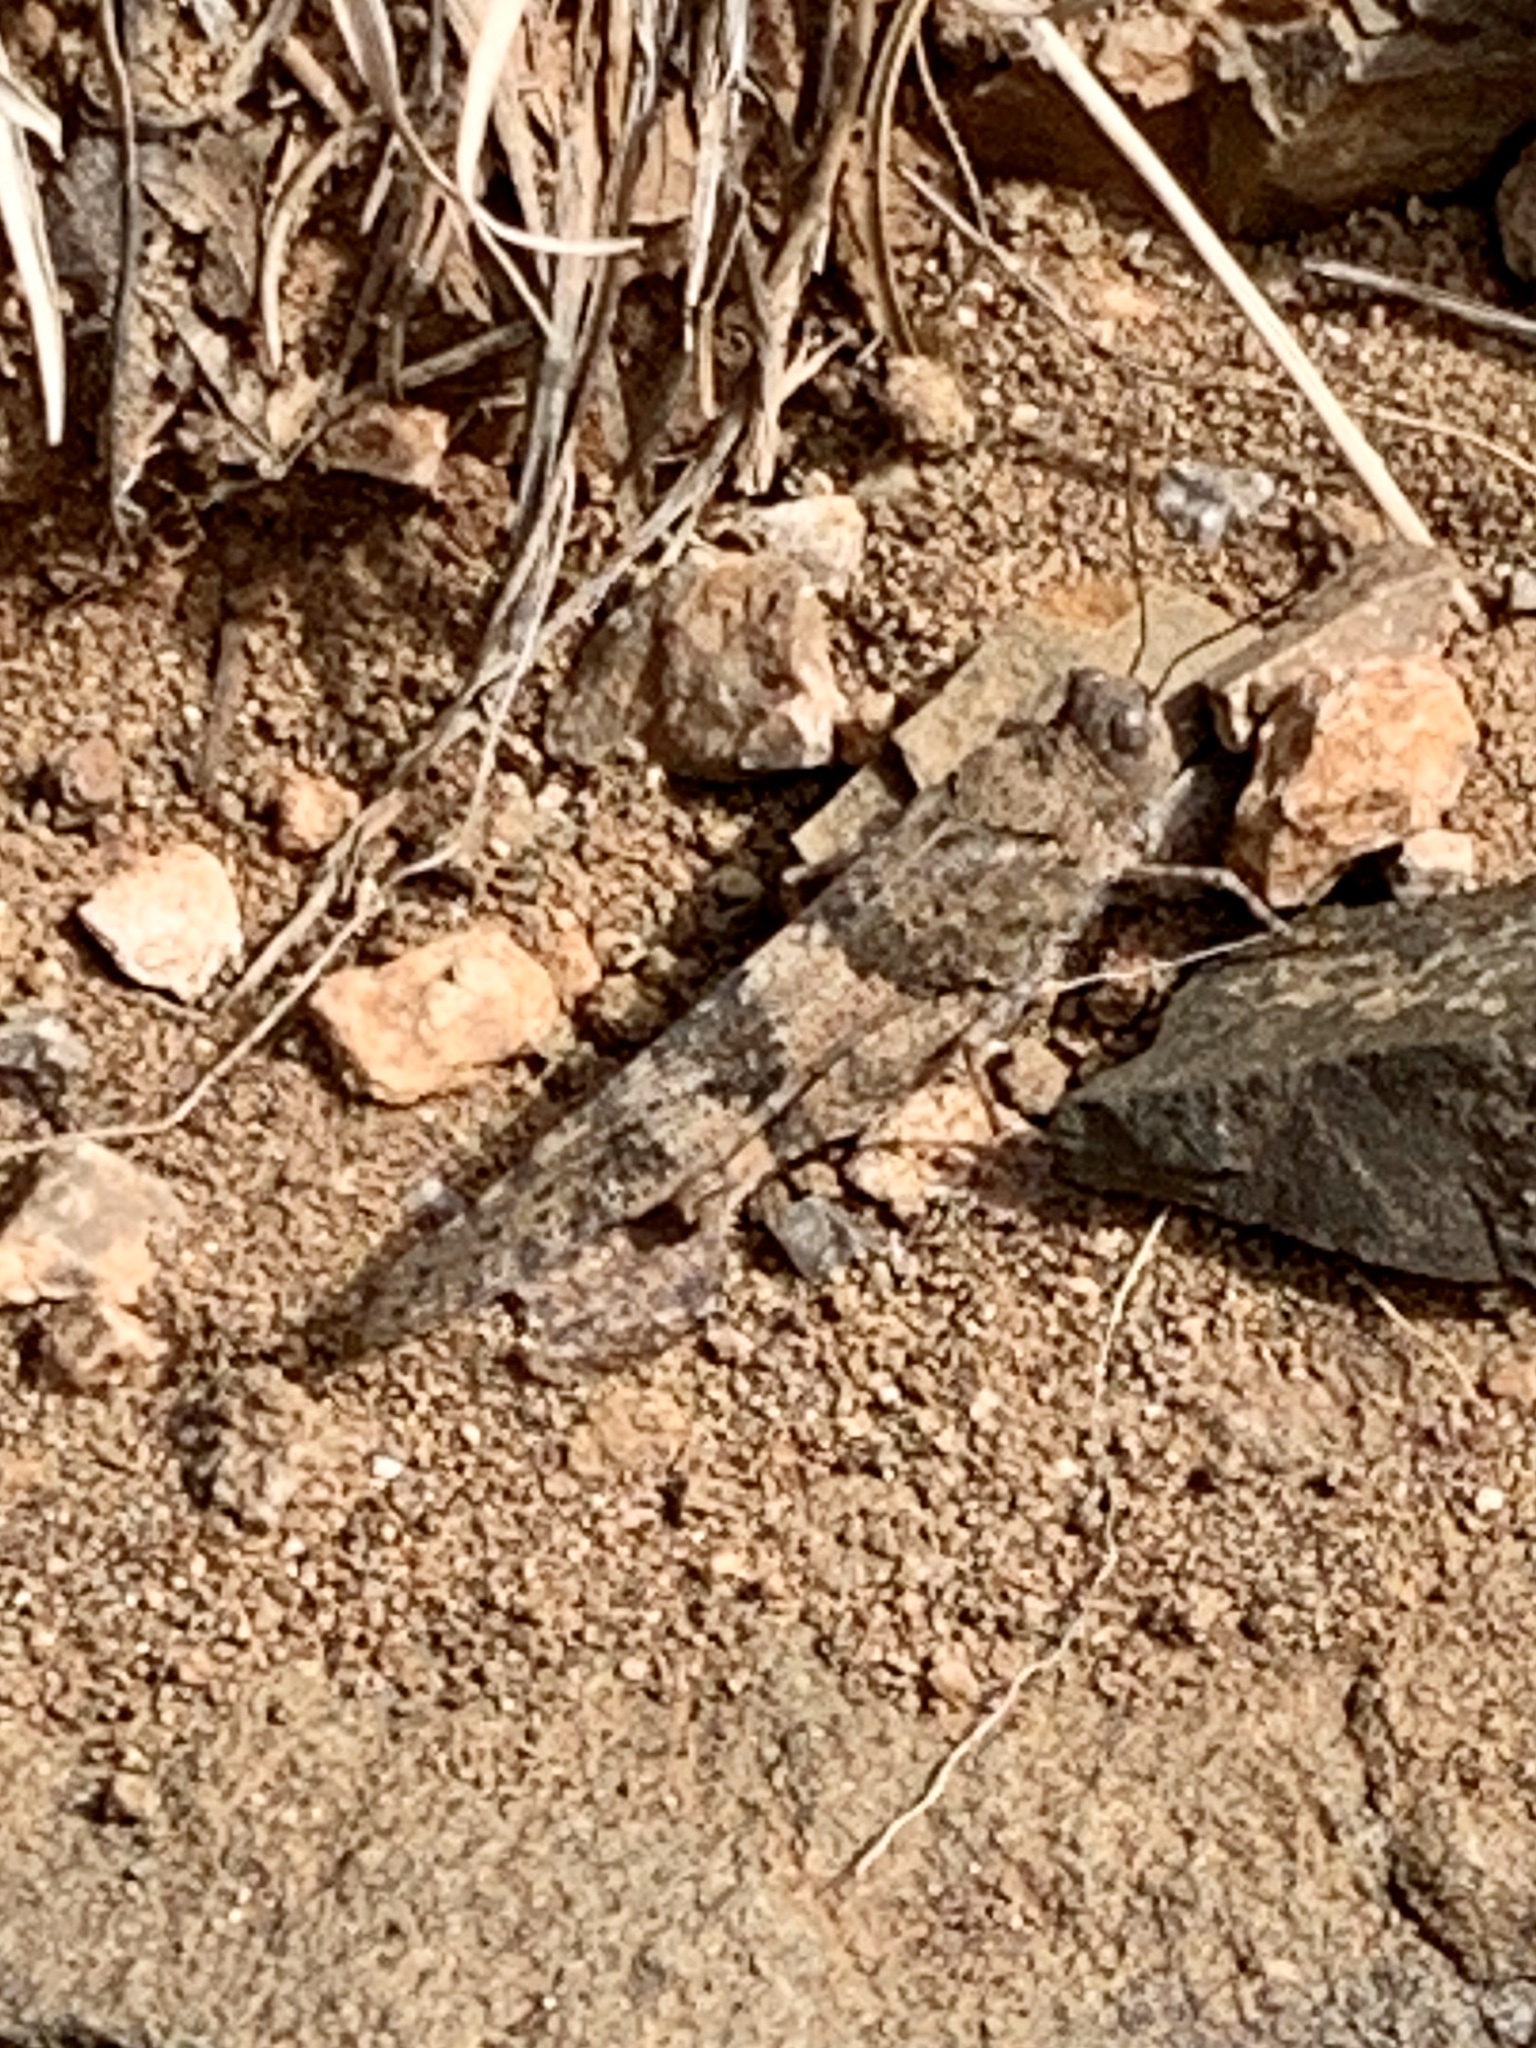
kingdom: Animalia
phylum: Arthropoda
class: Insecta
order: Orthoptera
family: Acrididae
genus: Trimerotropis
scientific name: Trimerotropis pallidipennis
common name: Pallid-winged grasshopper
